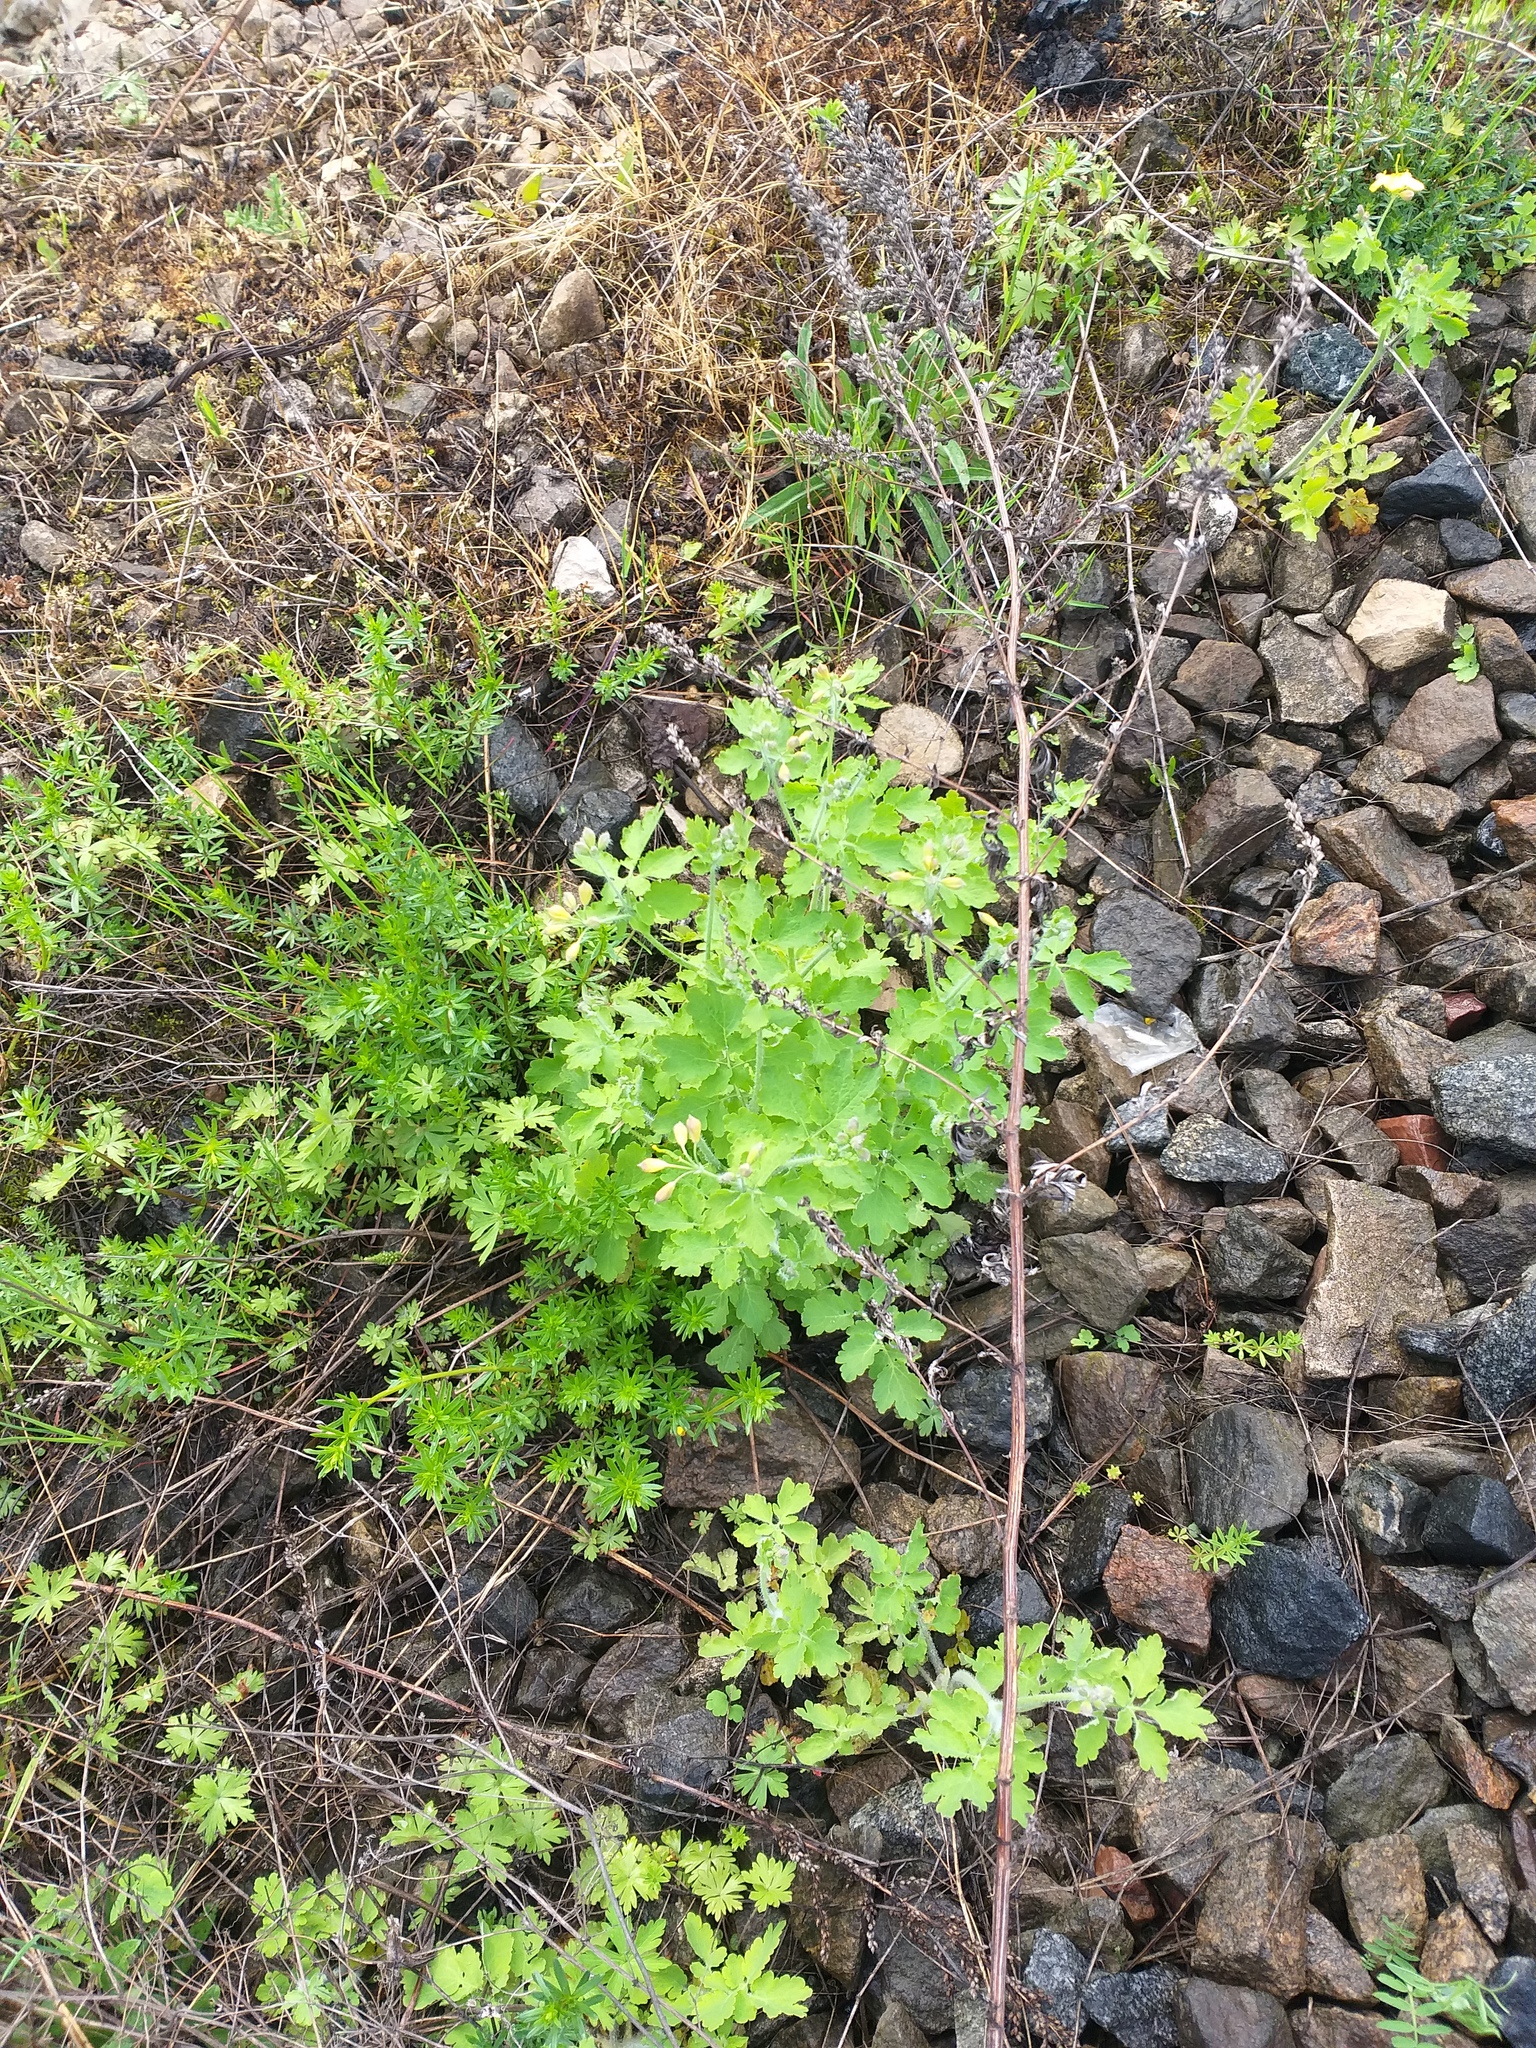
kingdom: Plantae
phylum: Tracheophyta
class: Magnoliopsida
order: Ranunculales
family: Papaveraceae
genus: Chelidonium
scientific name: Chelidonium majus
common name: Greater celandine
